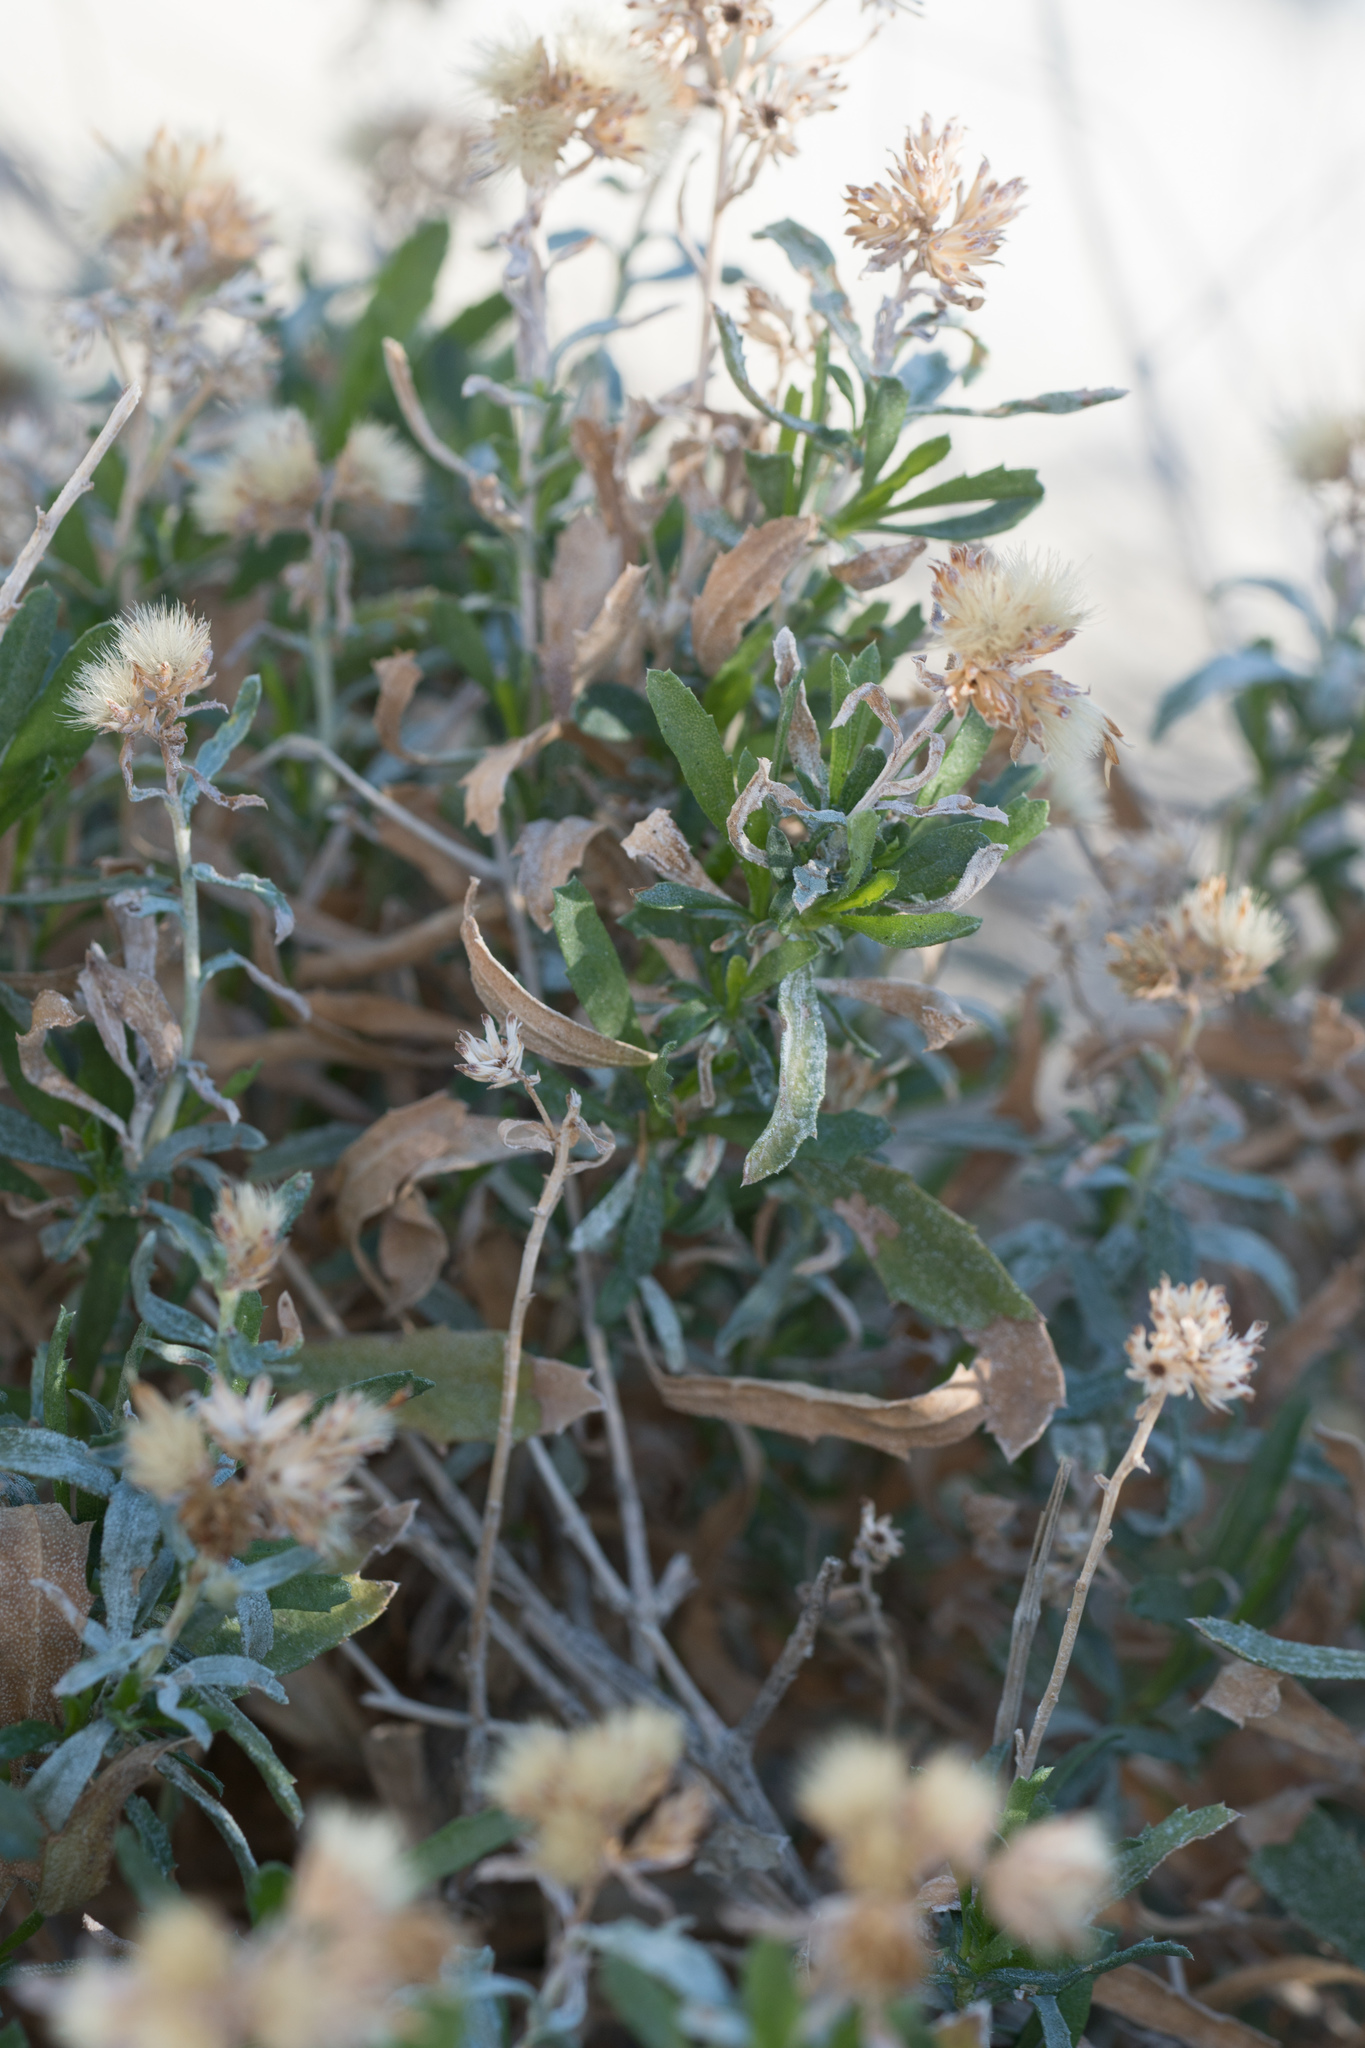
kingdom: Plantae
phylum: Tracheophyta
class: Magnoliopsida
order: Asterales
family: Asteraceae
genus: Isocoma
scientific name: Isocoma acradenia
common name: Alkali jimmyweed
